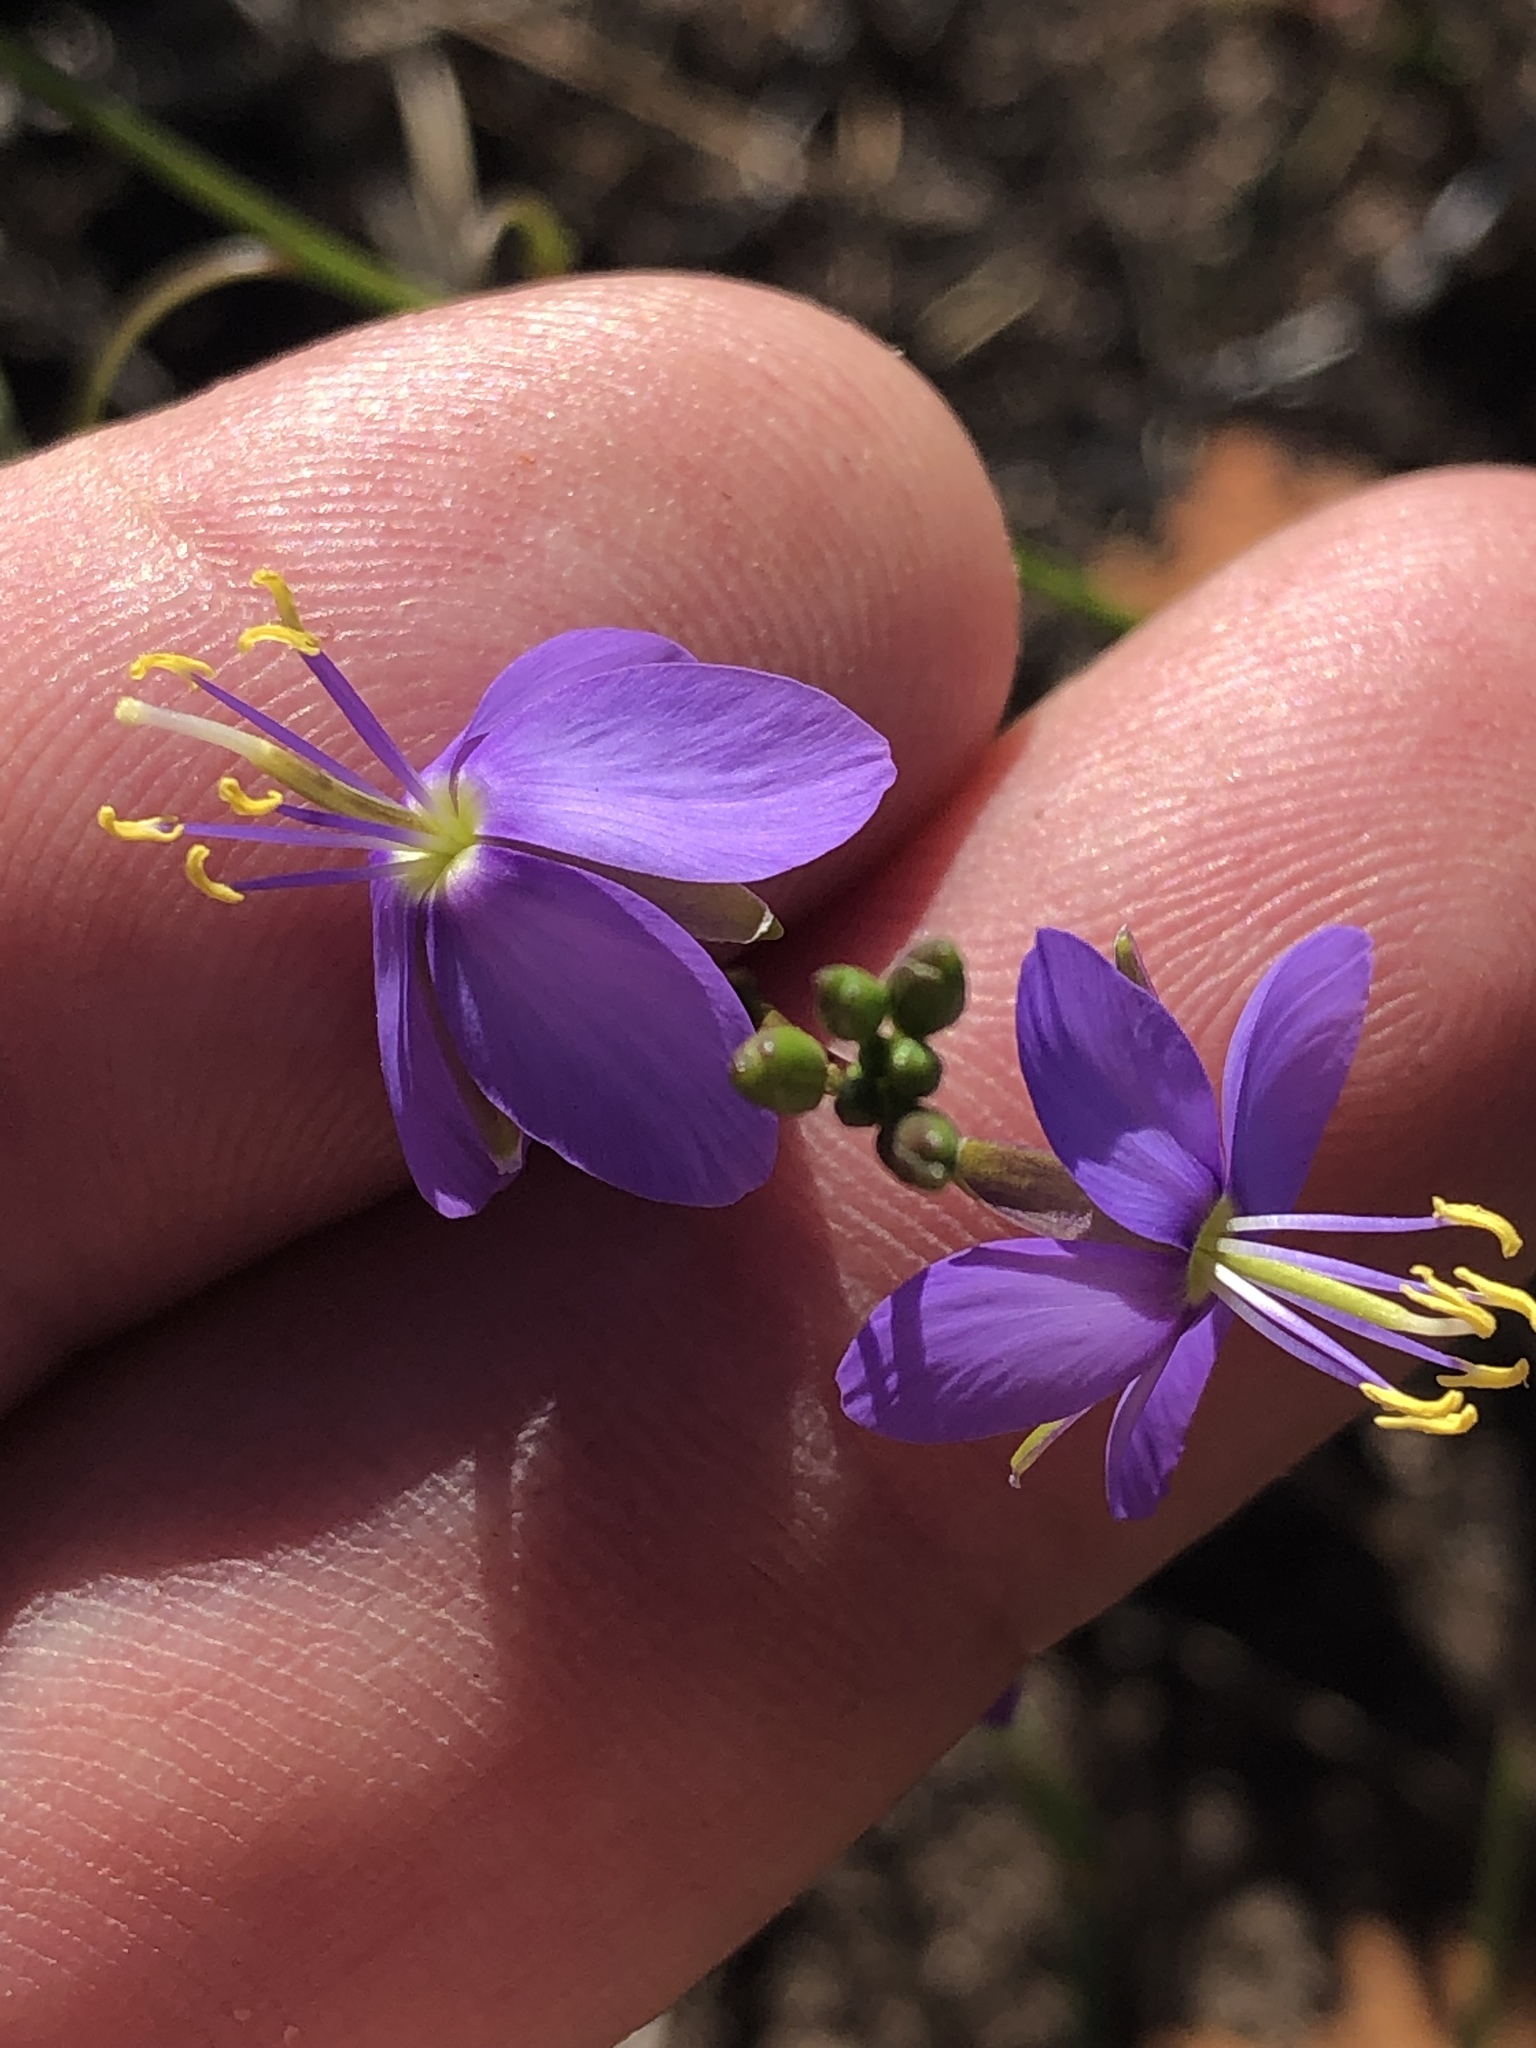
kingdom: Plantae
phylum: Tracheophyta
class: Magnoliopsida
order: Brassicales
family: Brassicaceae
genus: Heliophila
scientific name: Heliophila subulata
